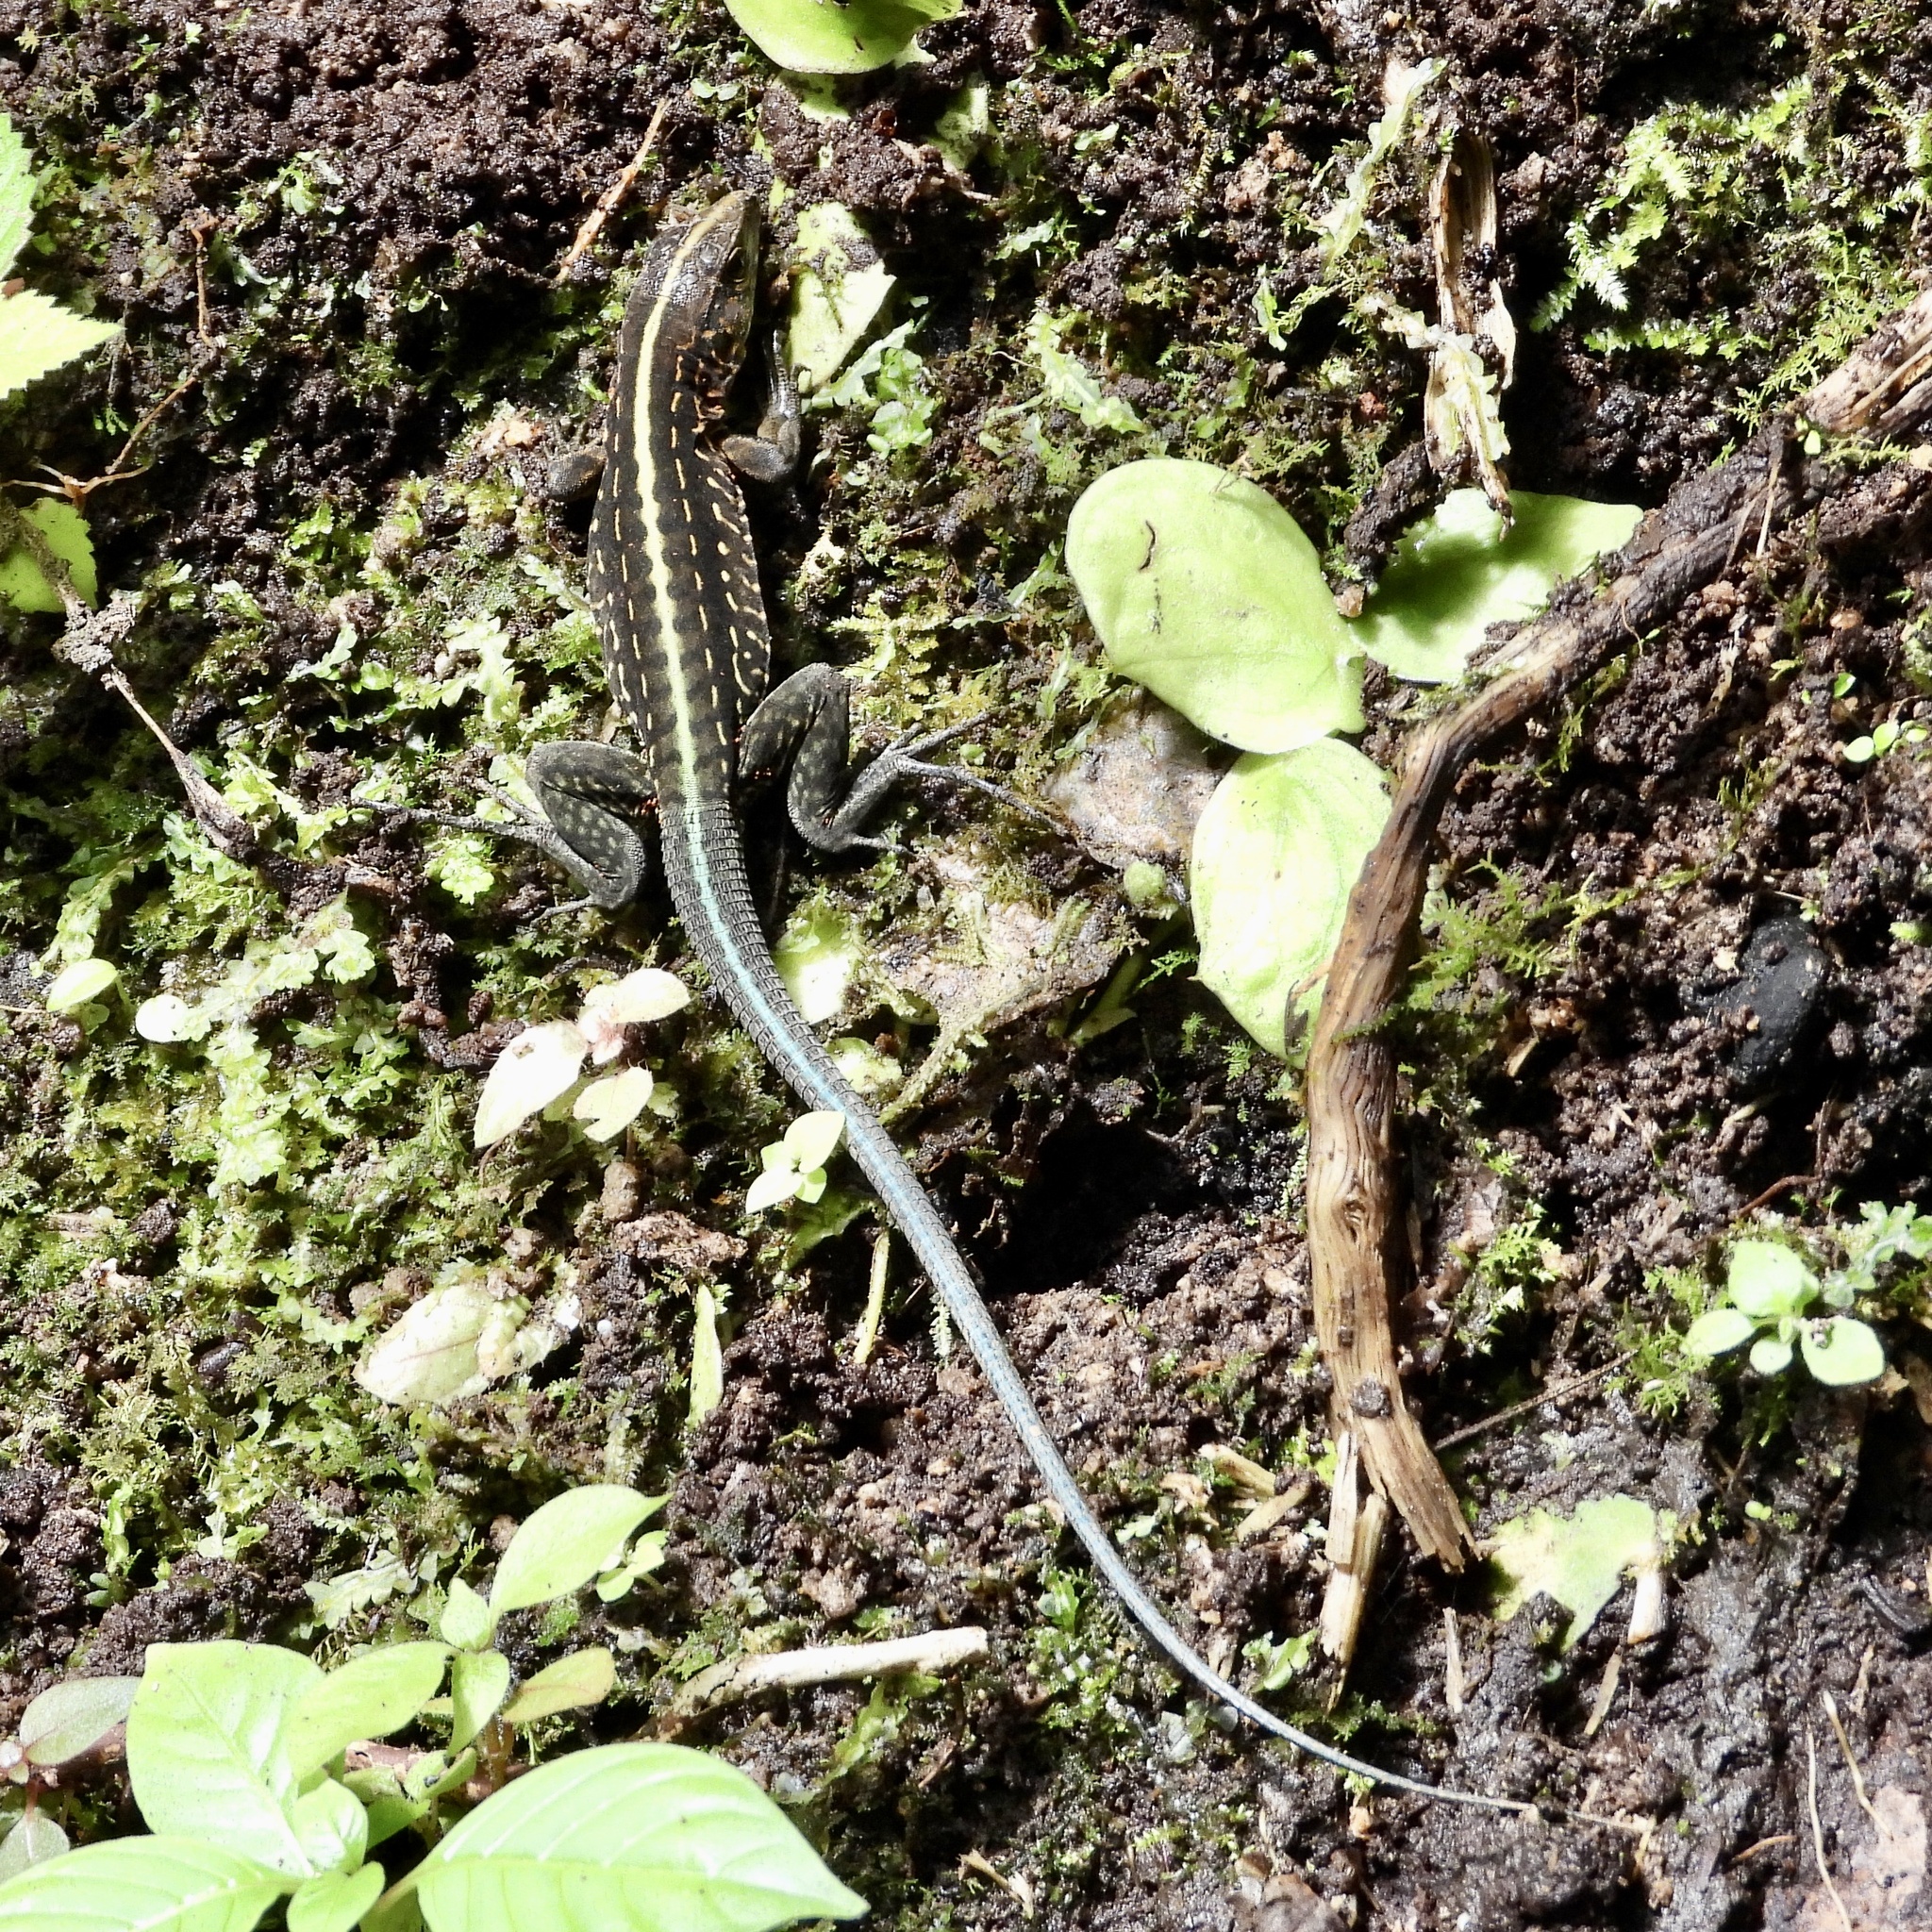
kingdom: Animalia
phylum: Chordata
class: Squamata
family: Teiidae
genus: Holcosus
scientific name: Holcosus festivus
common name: Middle american ameiva
